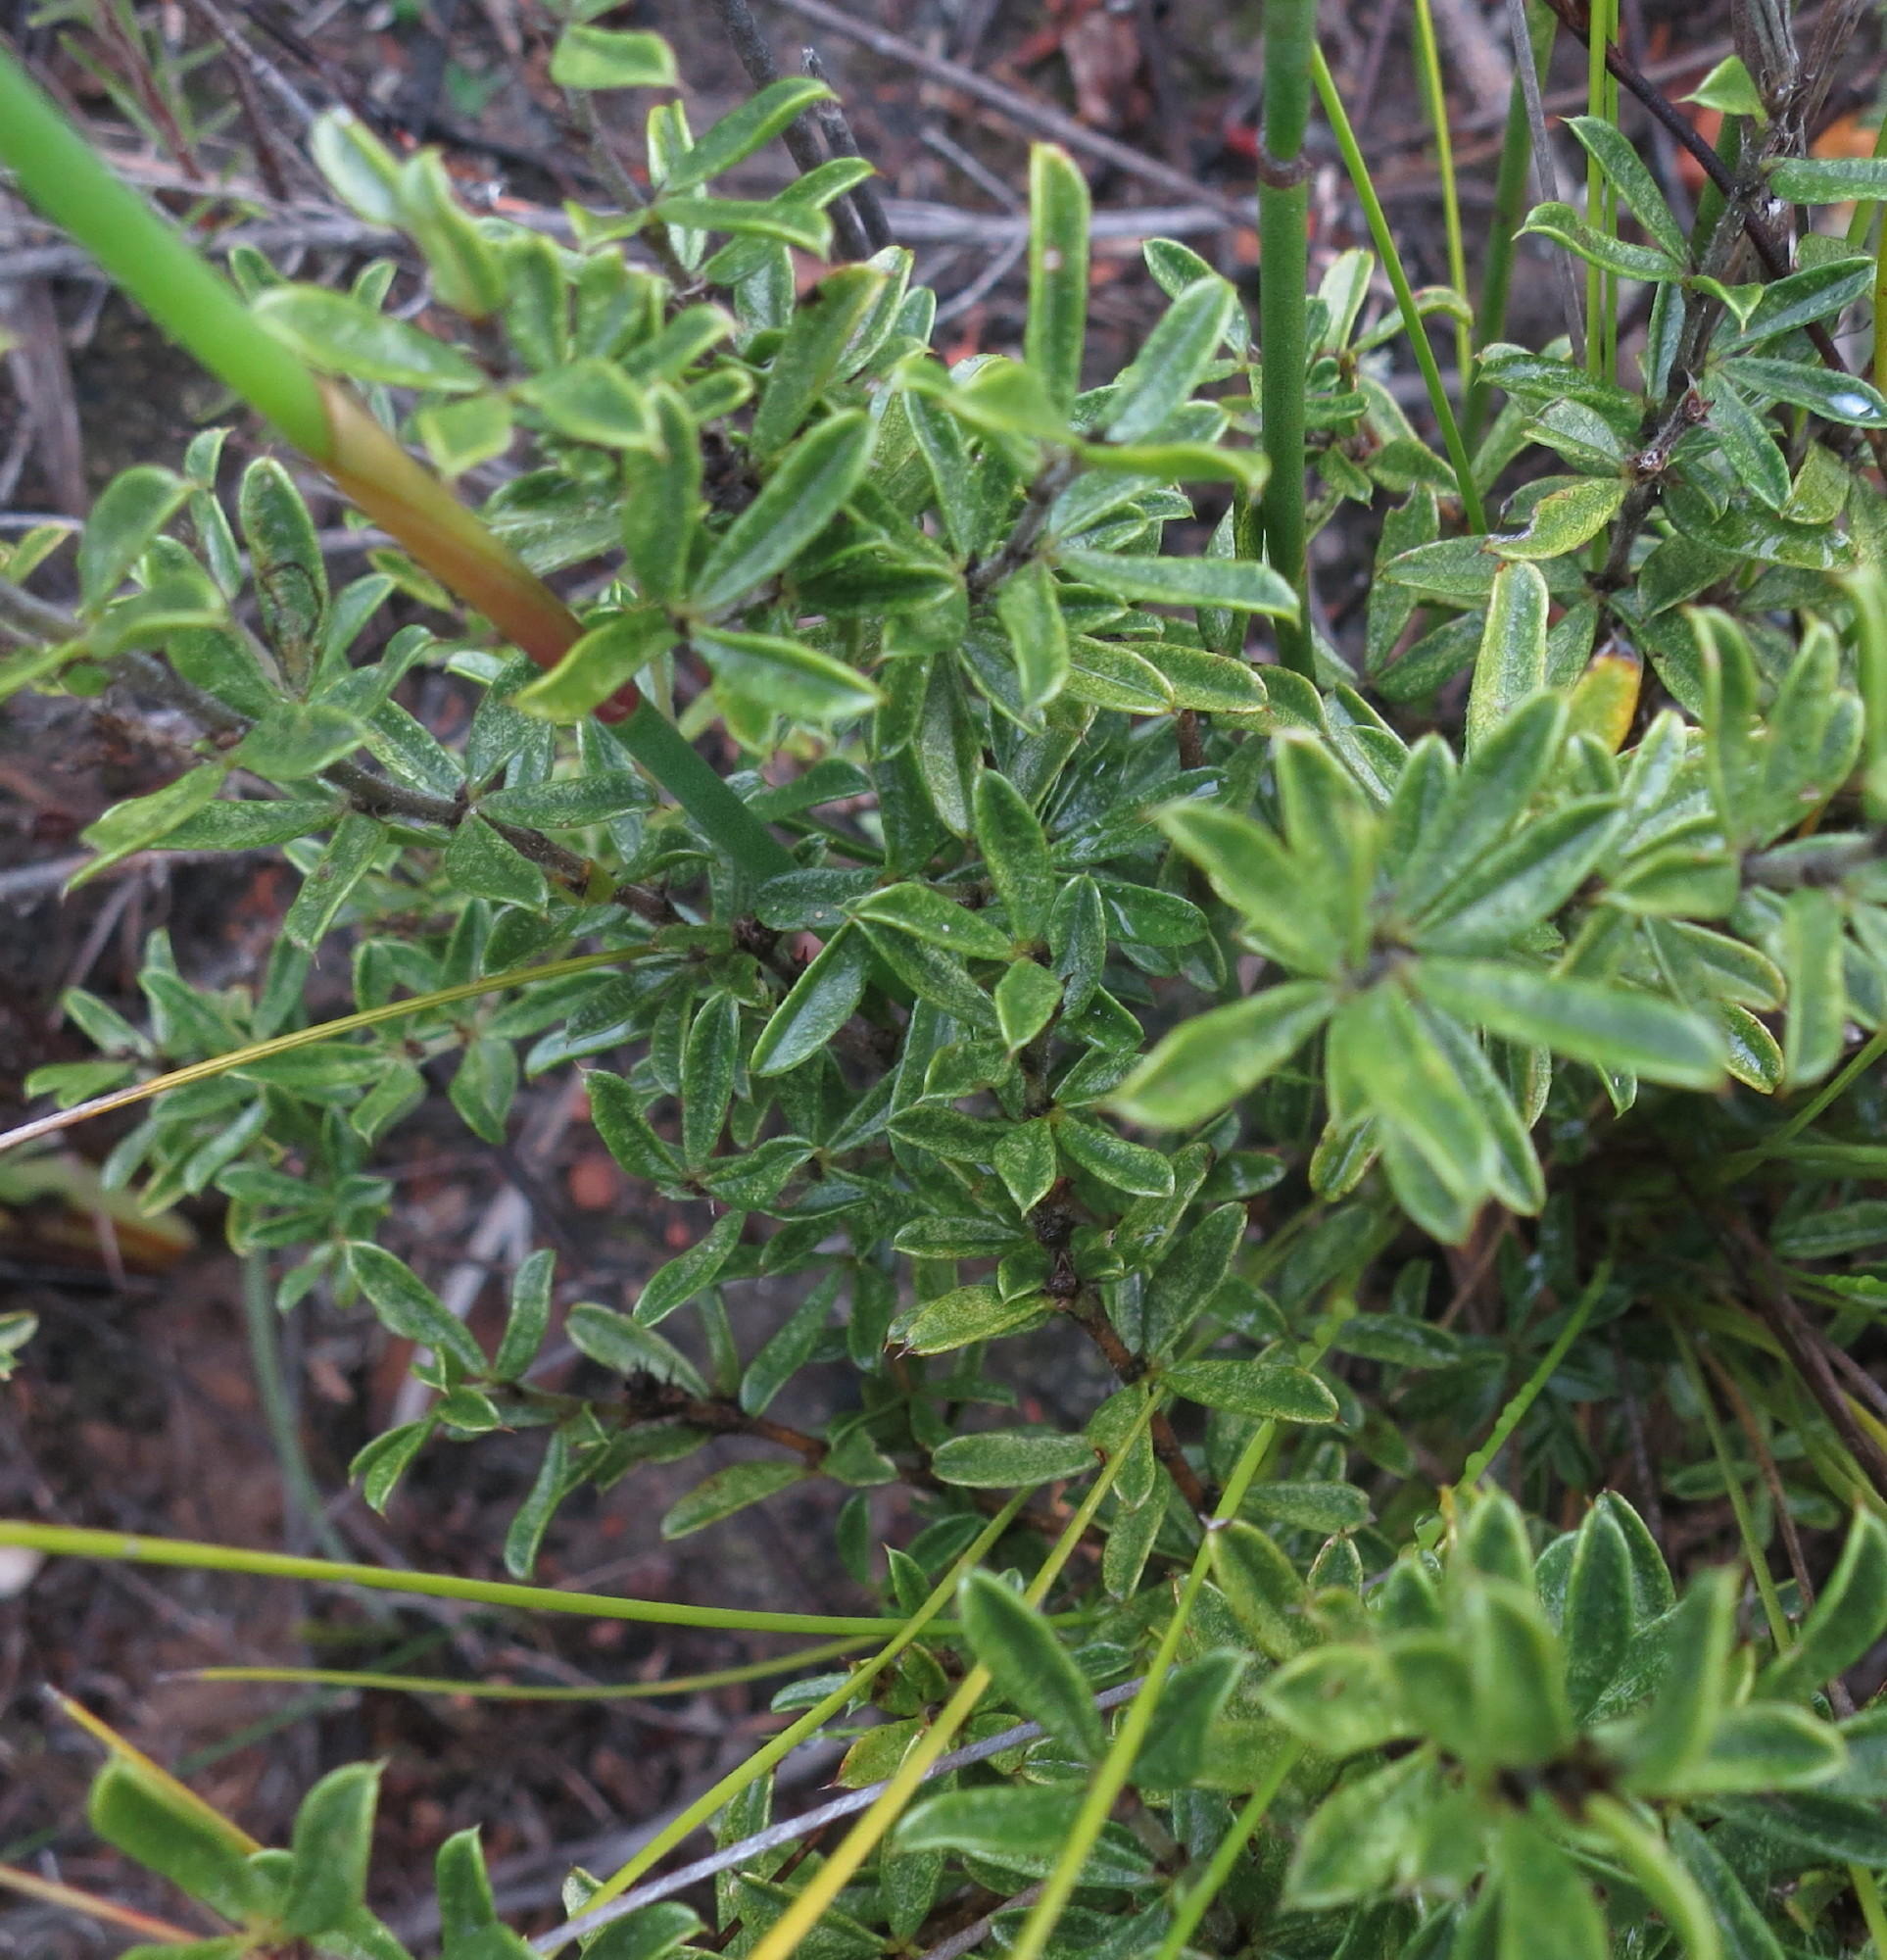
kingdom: Plantae
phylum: Tracheophyta
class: Magnoliopsida
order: Fabales
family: Fabaceae
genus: Psoralea
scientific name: Psoralea heterosepala
